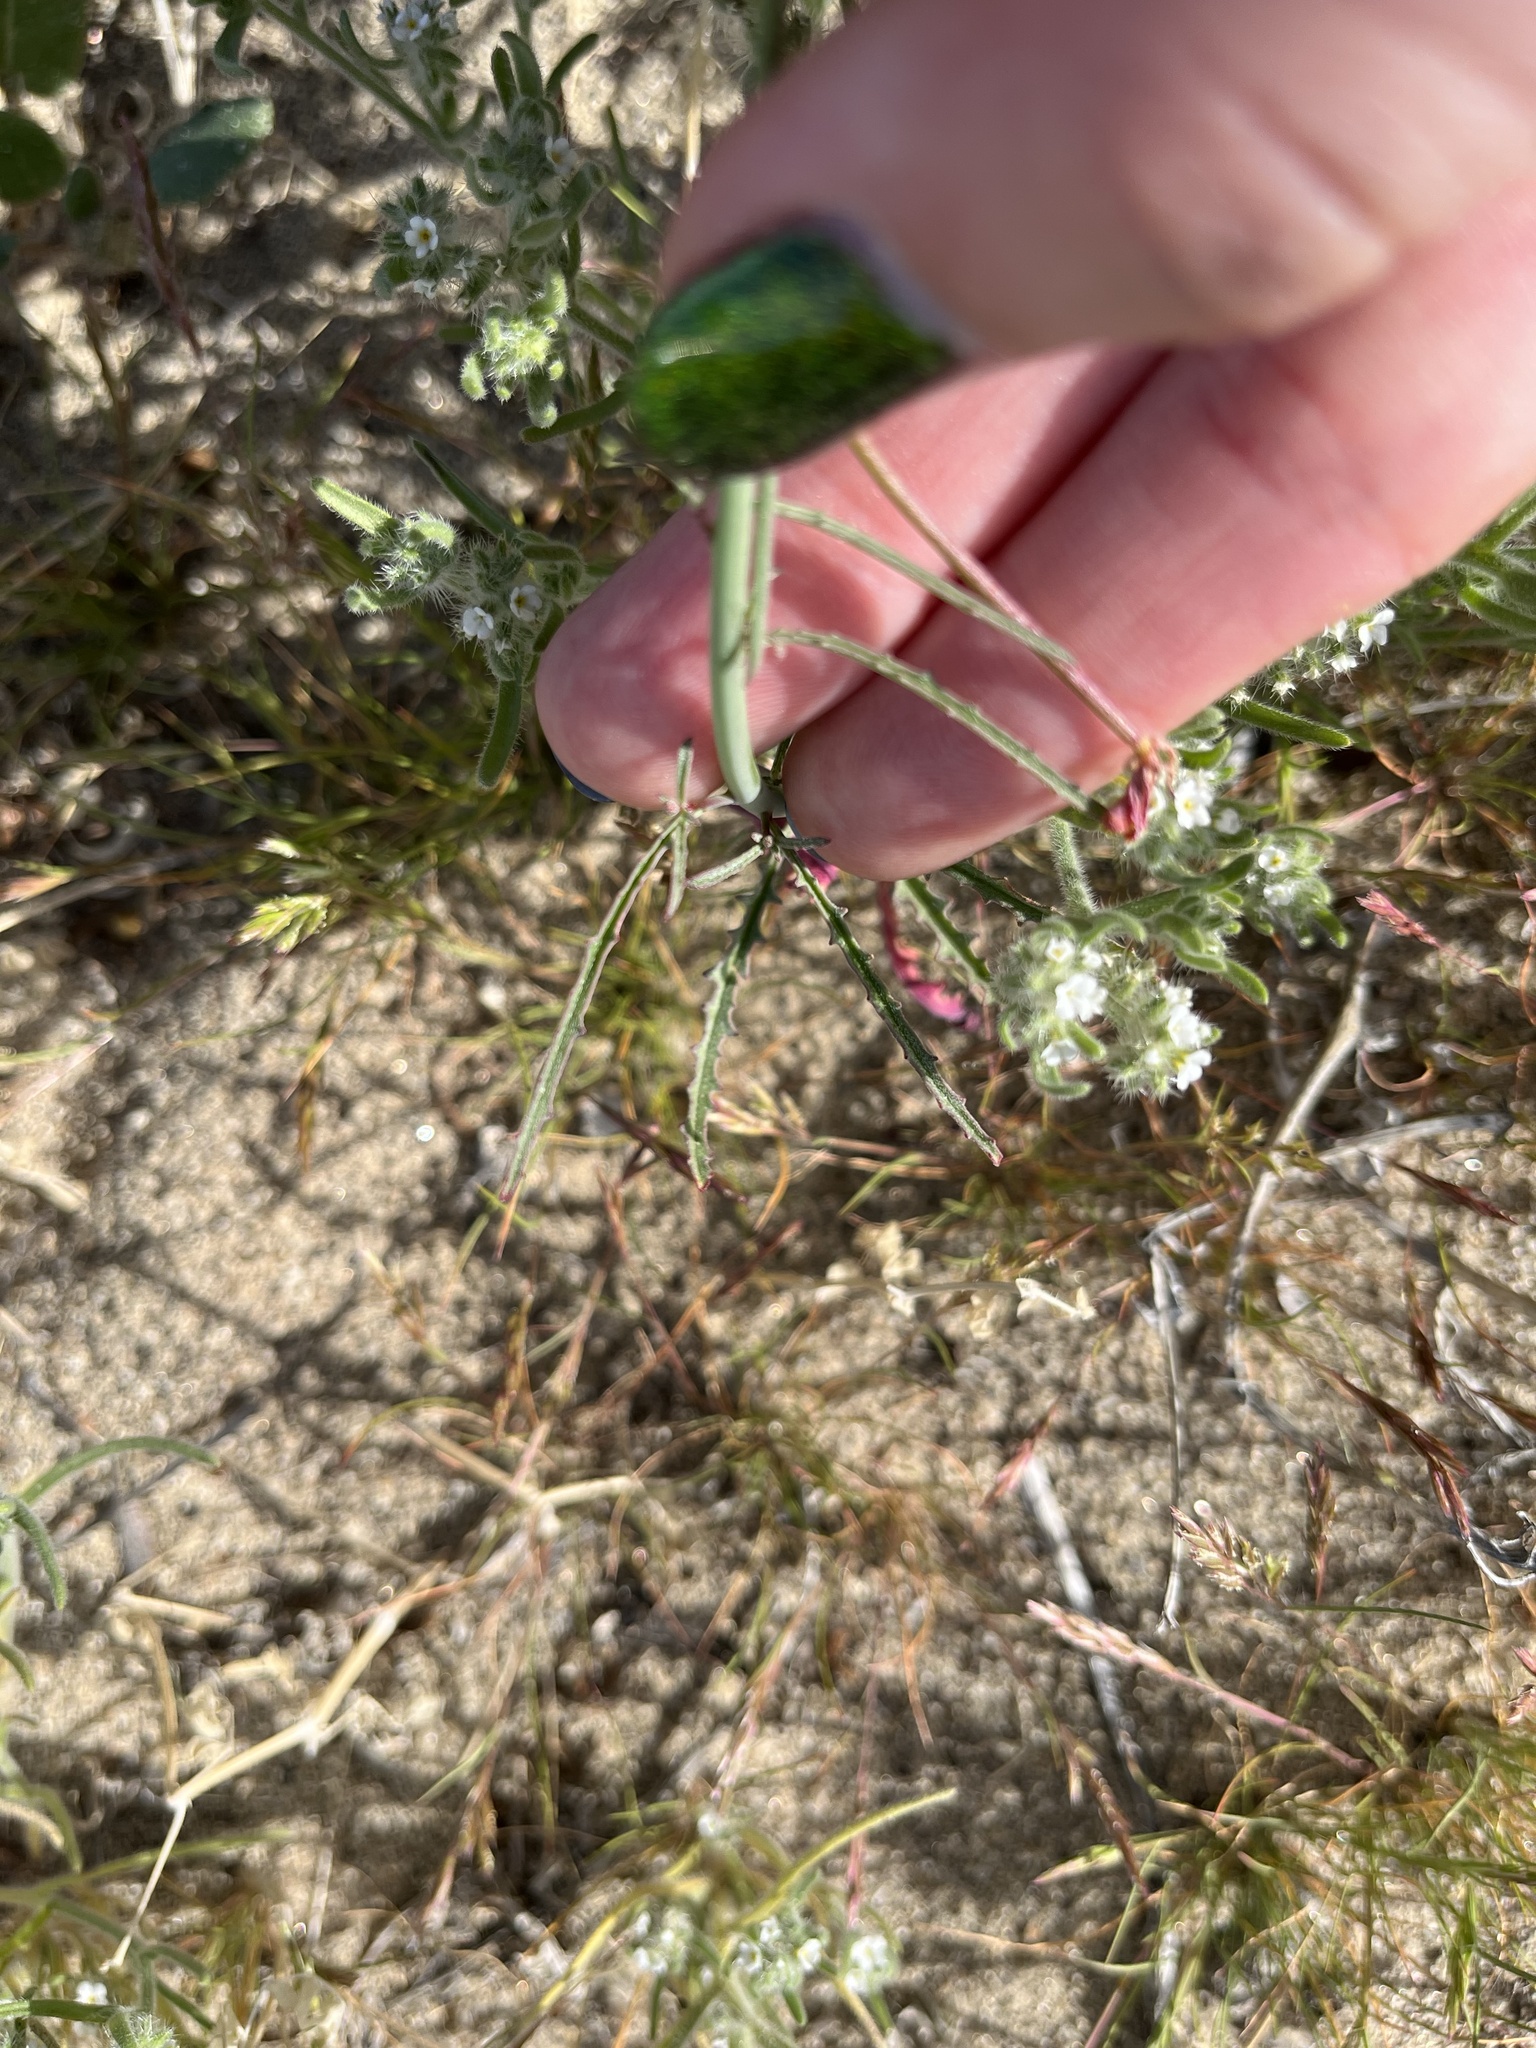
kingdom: Plantae
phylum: Tracheophyta
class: Magnoliopsida
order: Myrtales
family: Onagraceae
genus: Eulobus
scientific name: Eulobus californicus
